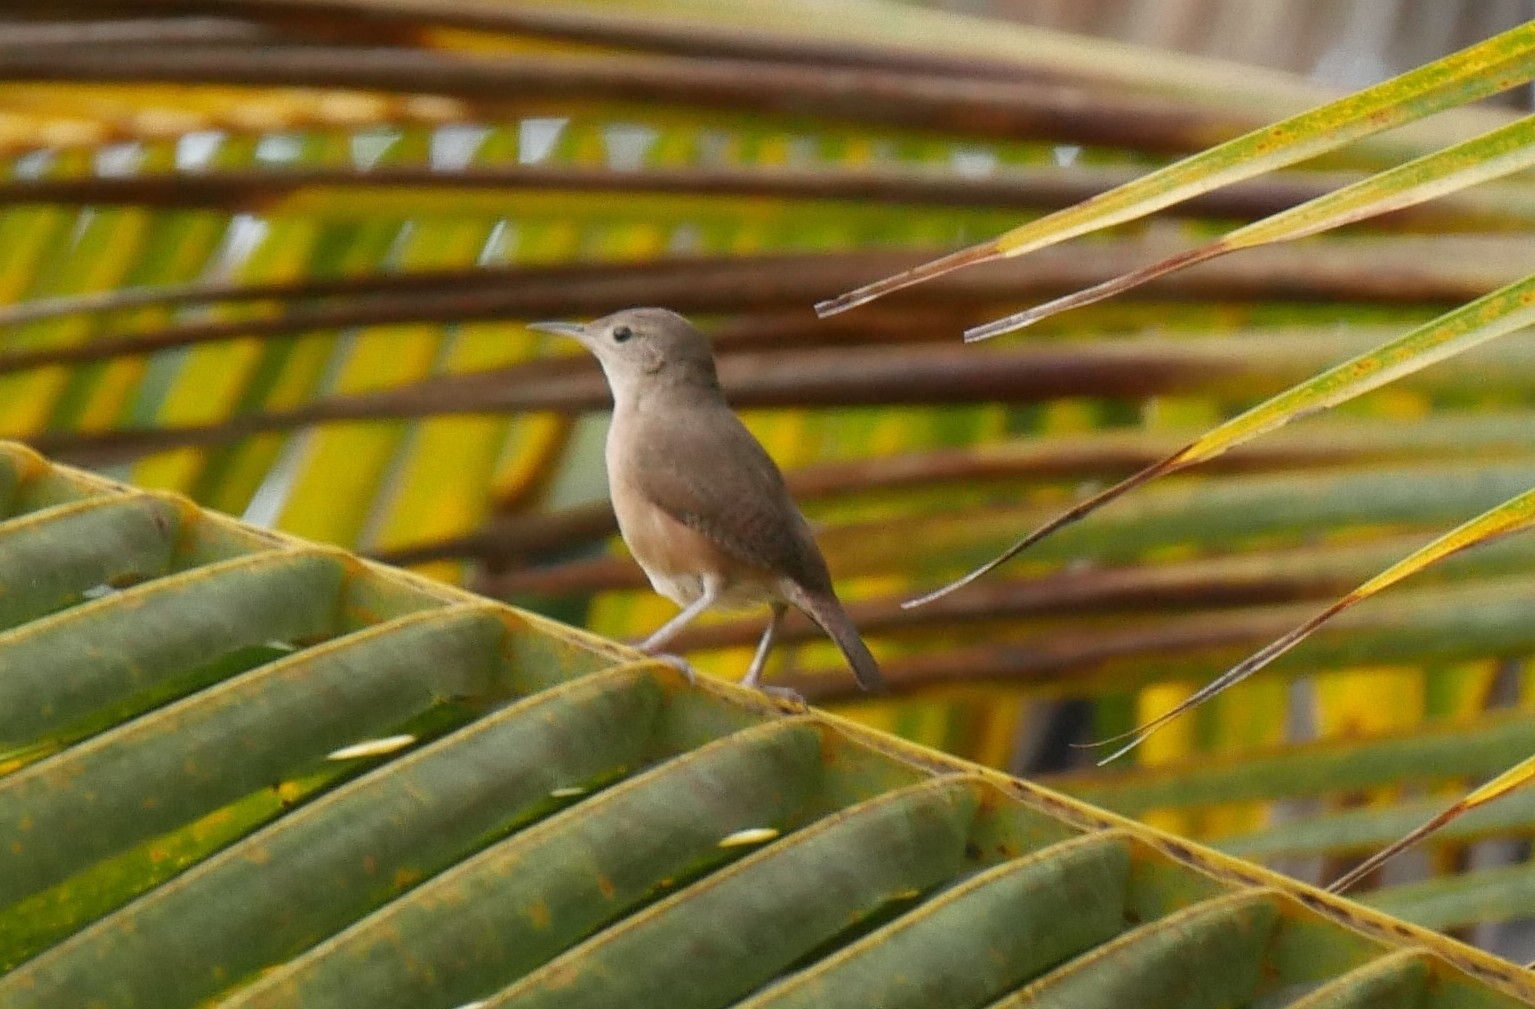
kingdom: Animalia
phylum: Chordata
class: Aves
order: Passeriformes
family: Troglodytidae
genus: Troglodytes
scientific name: Troglodytes aedon
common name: House wren
